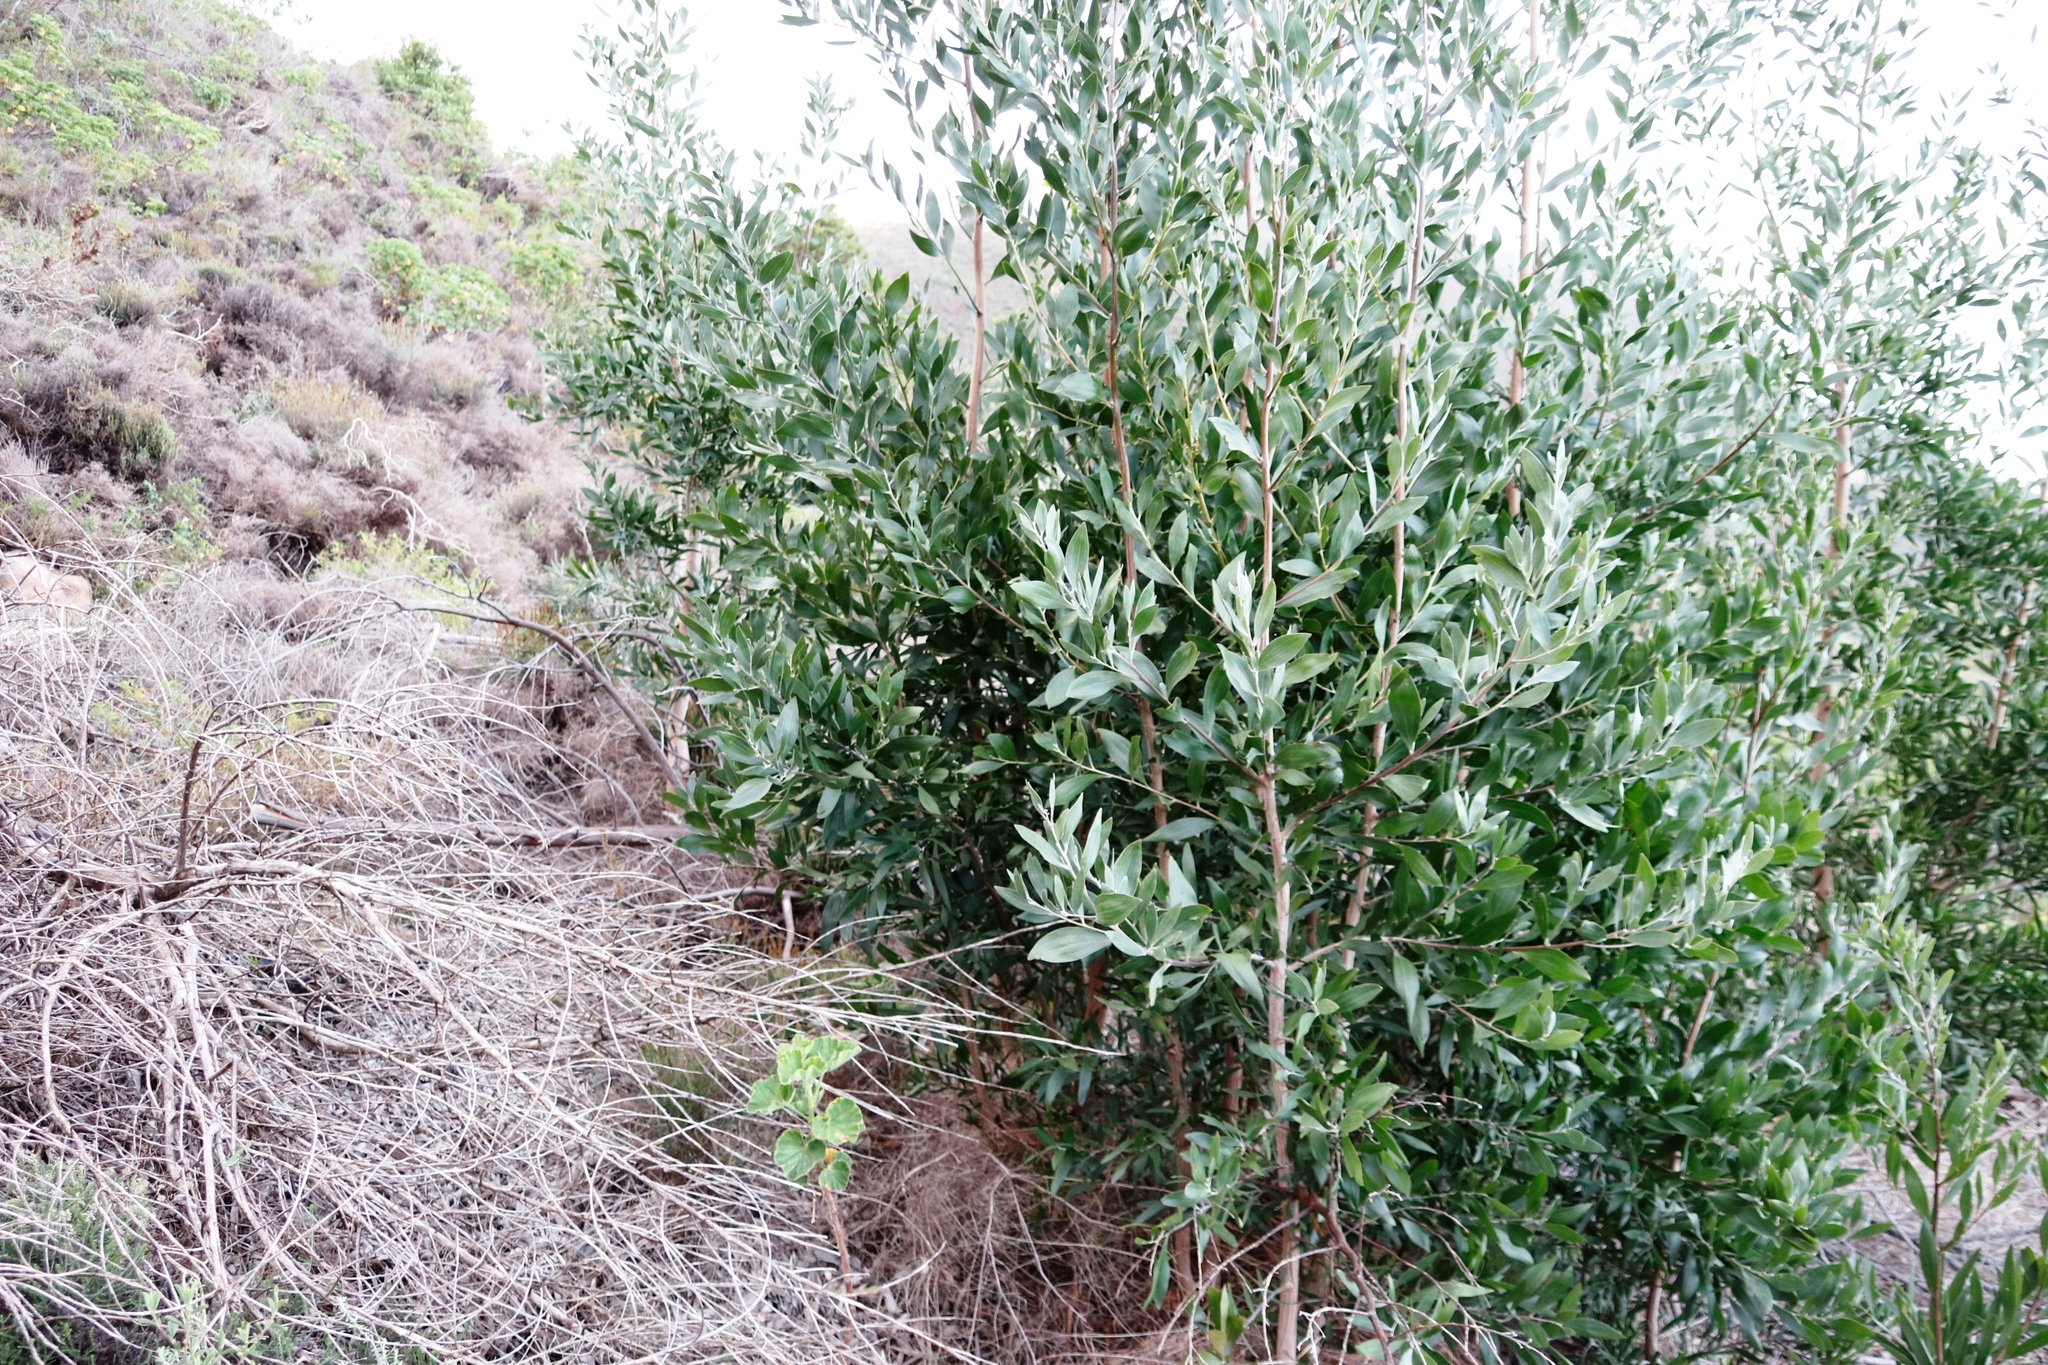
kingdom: Plantae
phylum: Tracheophyta
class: Magnoliopsida
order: Fabales
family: Fabaceae
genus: Acacia
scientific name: Acacia melanoxylon
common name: Blackwood
